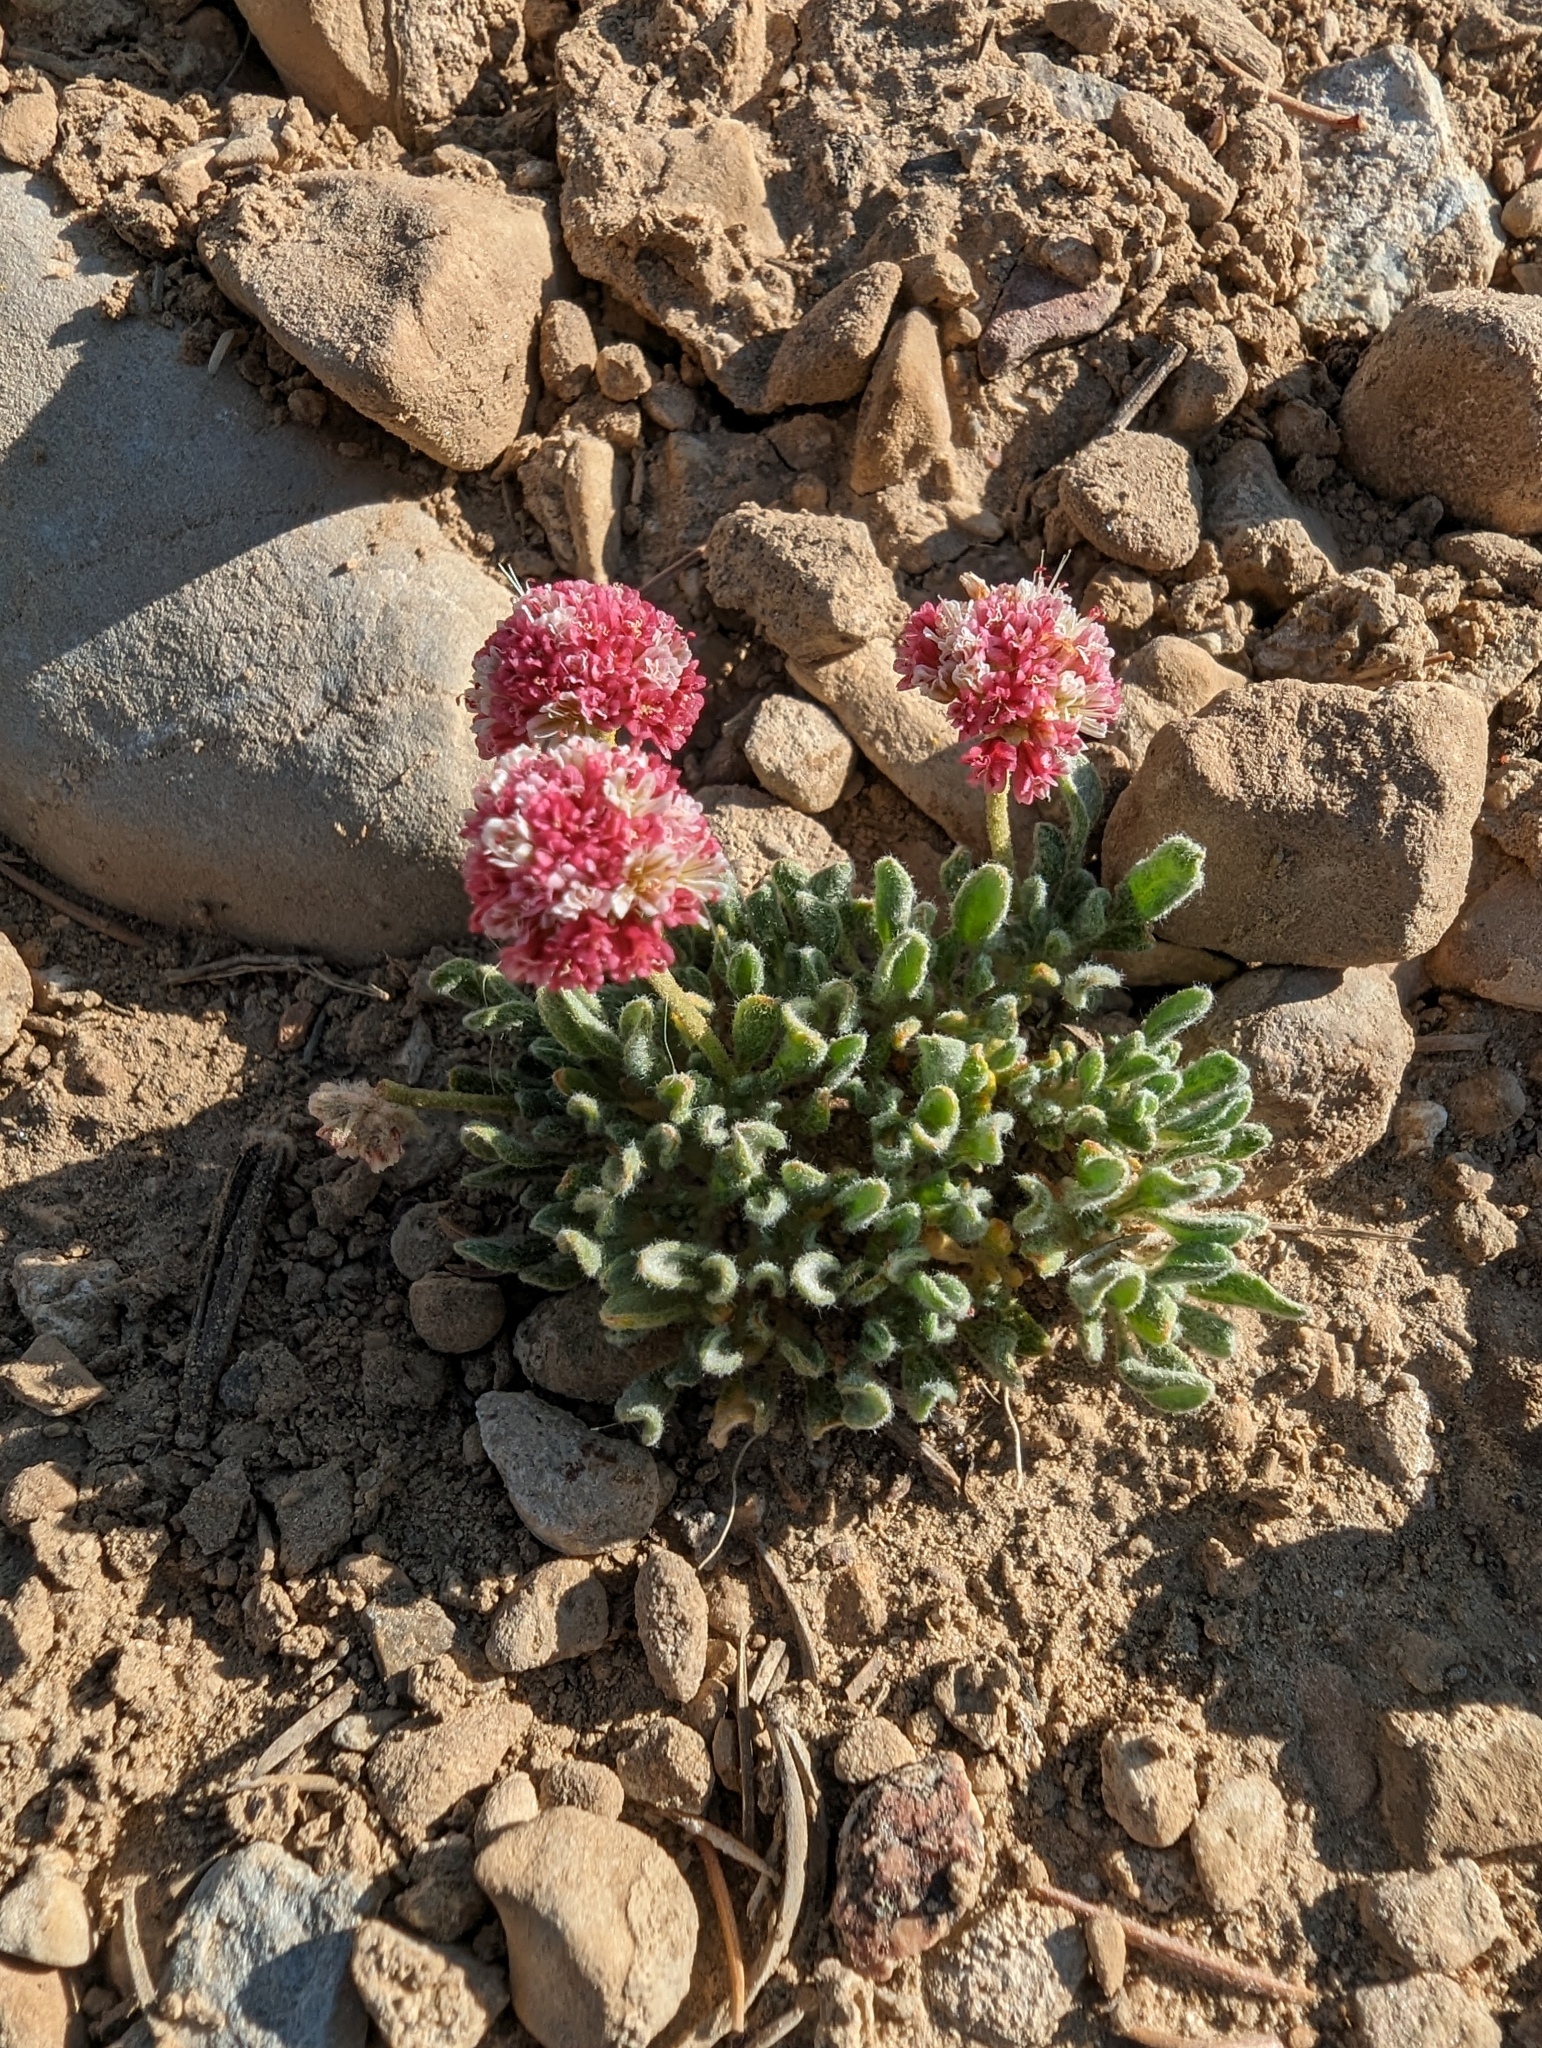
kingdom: Plantae
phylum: Tracheophyta
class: Magnoliopsida
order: Caryophyllales
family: Polygonaceae
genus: Eriogonum
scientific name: Eriogonum gracilipes
